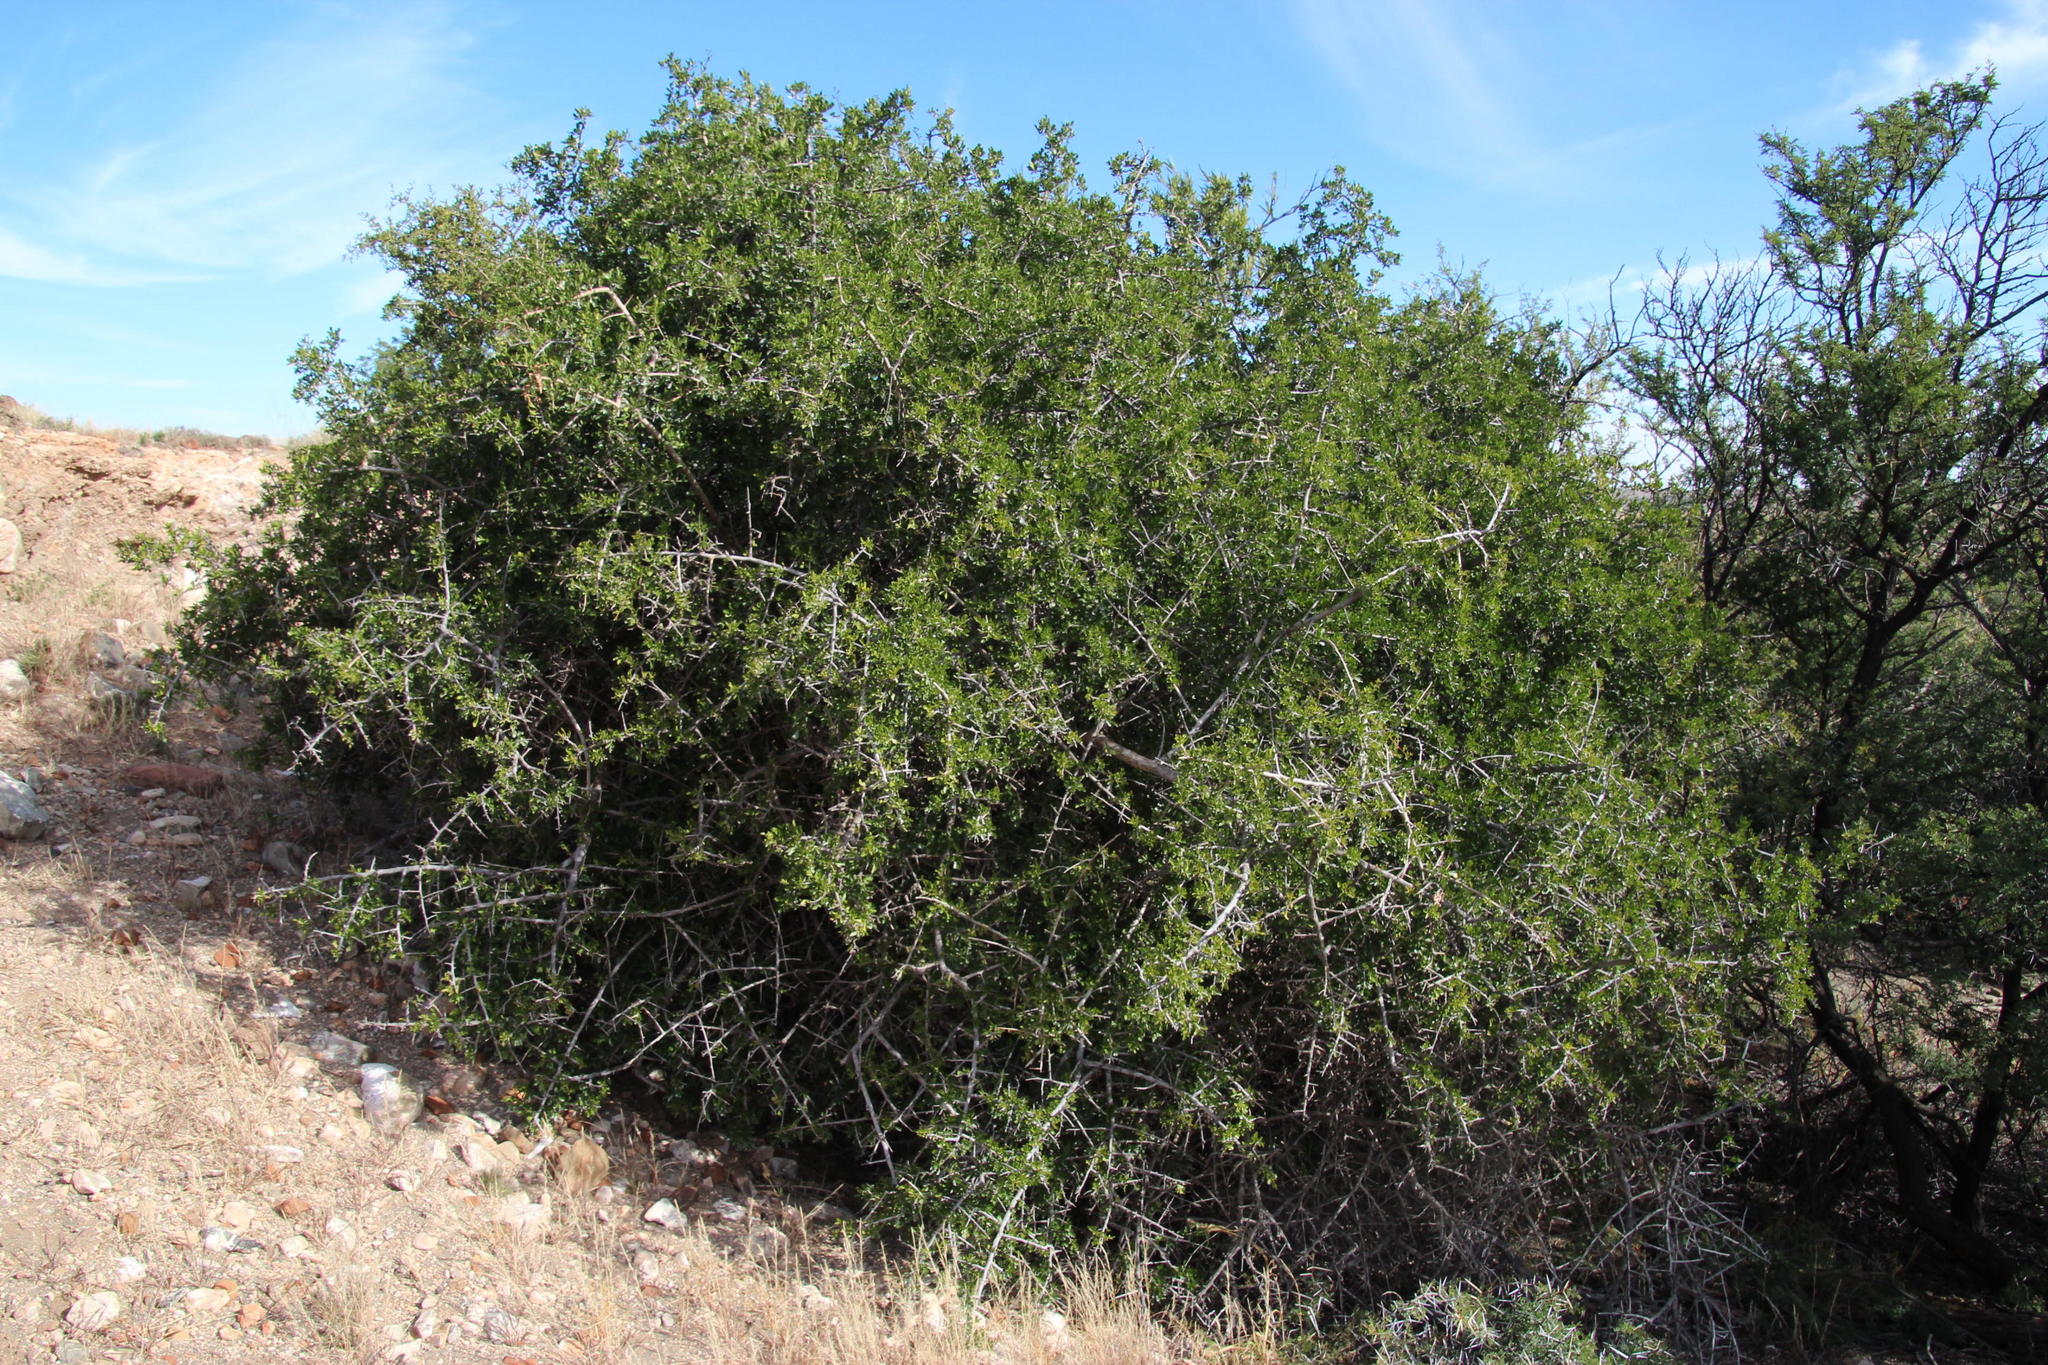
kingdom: Plantae
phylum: Tracheophyta
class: Magnoliopsida
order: Sapindales
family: Anacardiaceae
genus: Searsia
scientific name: Searsia longispina
